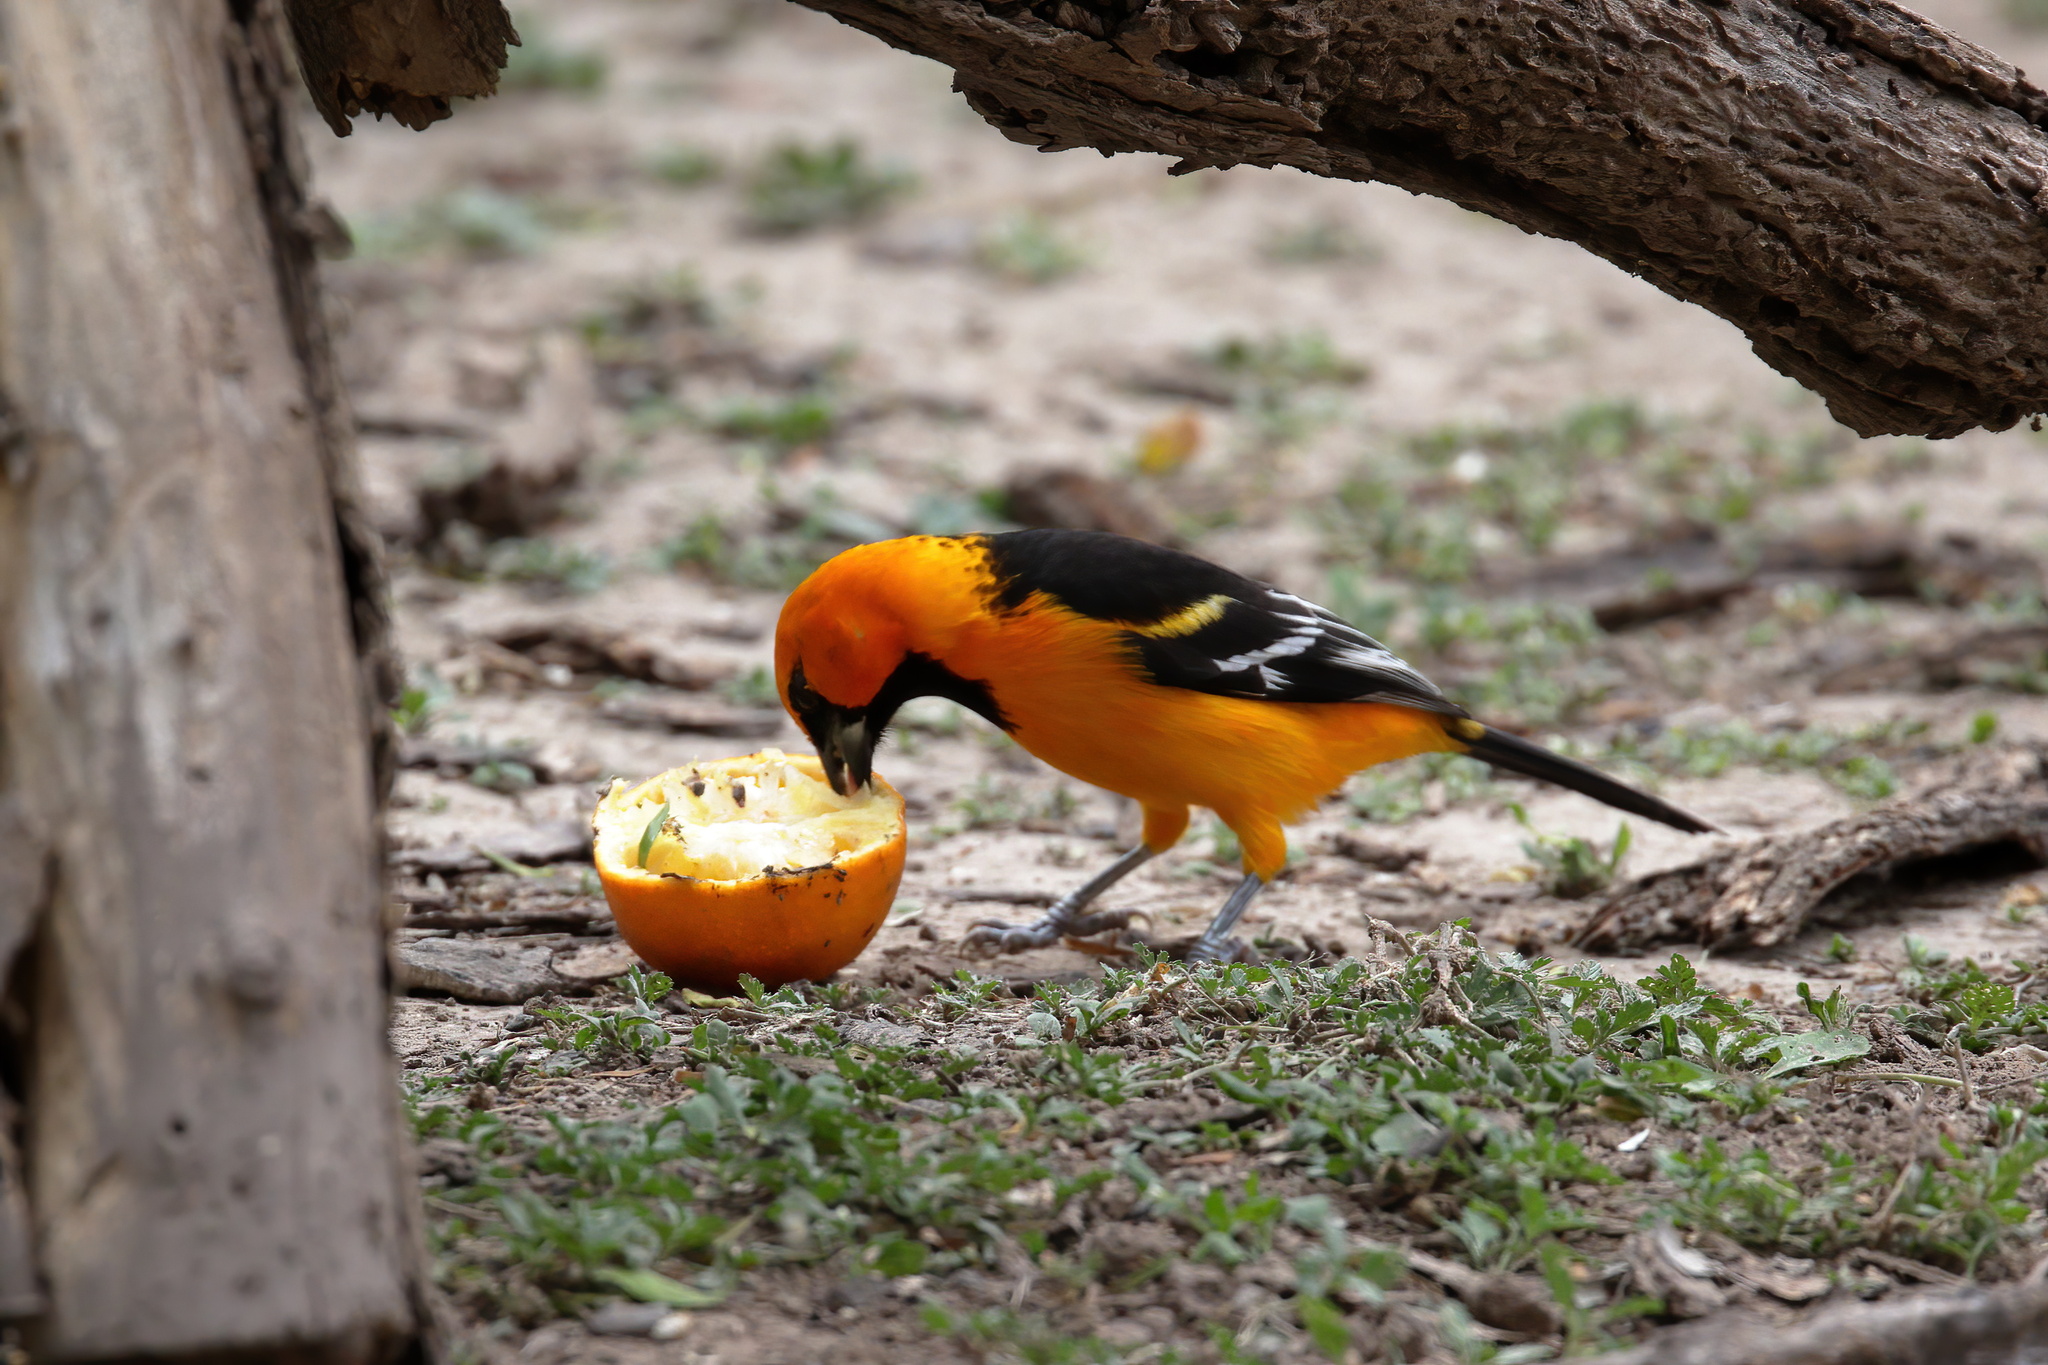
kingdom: Animalia
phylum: Chordata
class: Aves
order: Passeriformes
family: Icteridae
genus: Icterus
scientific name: Icterus gularis
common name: Altamira oriole
